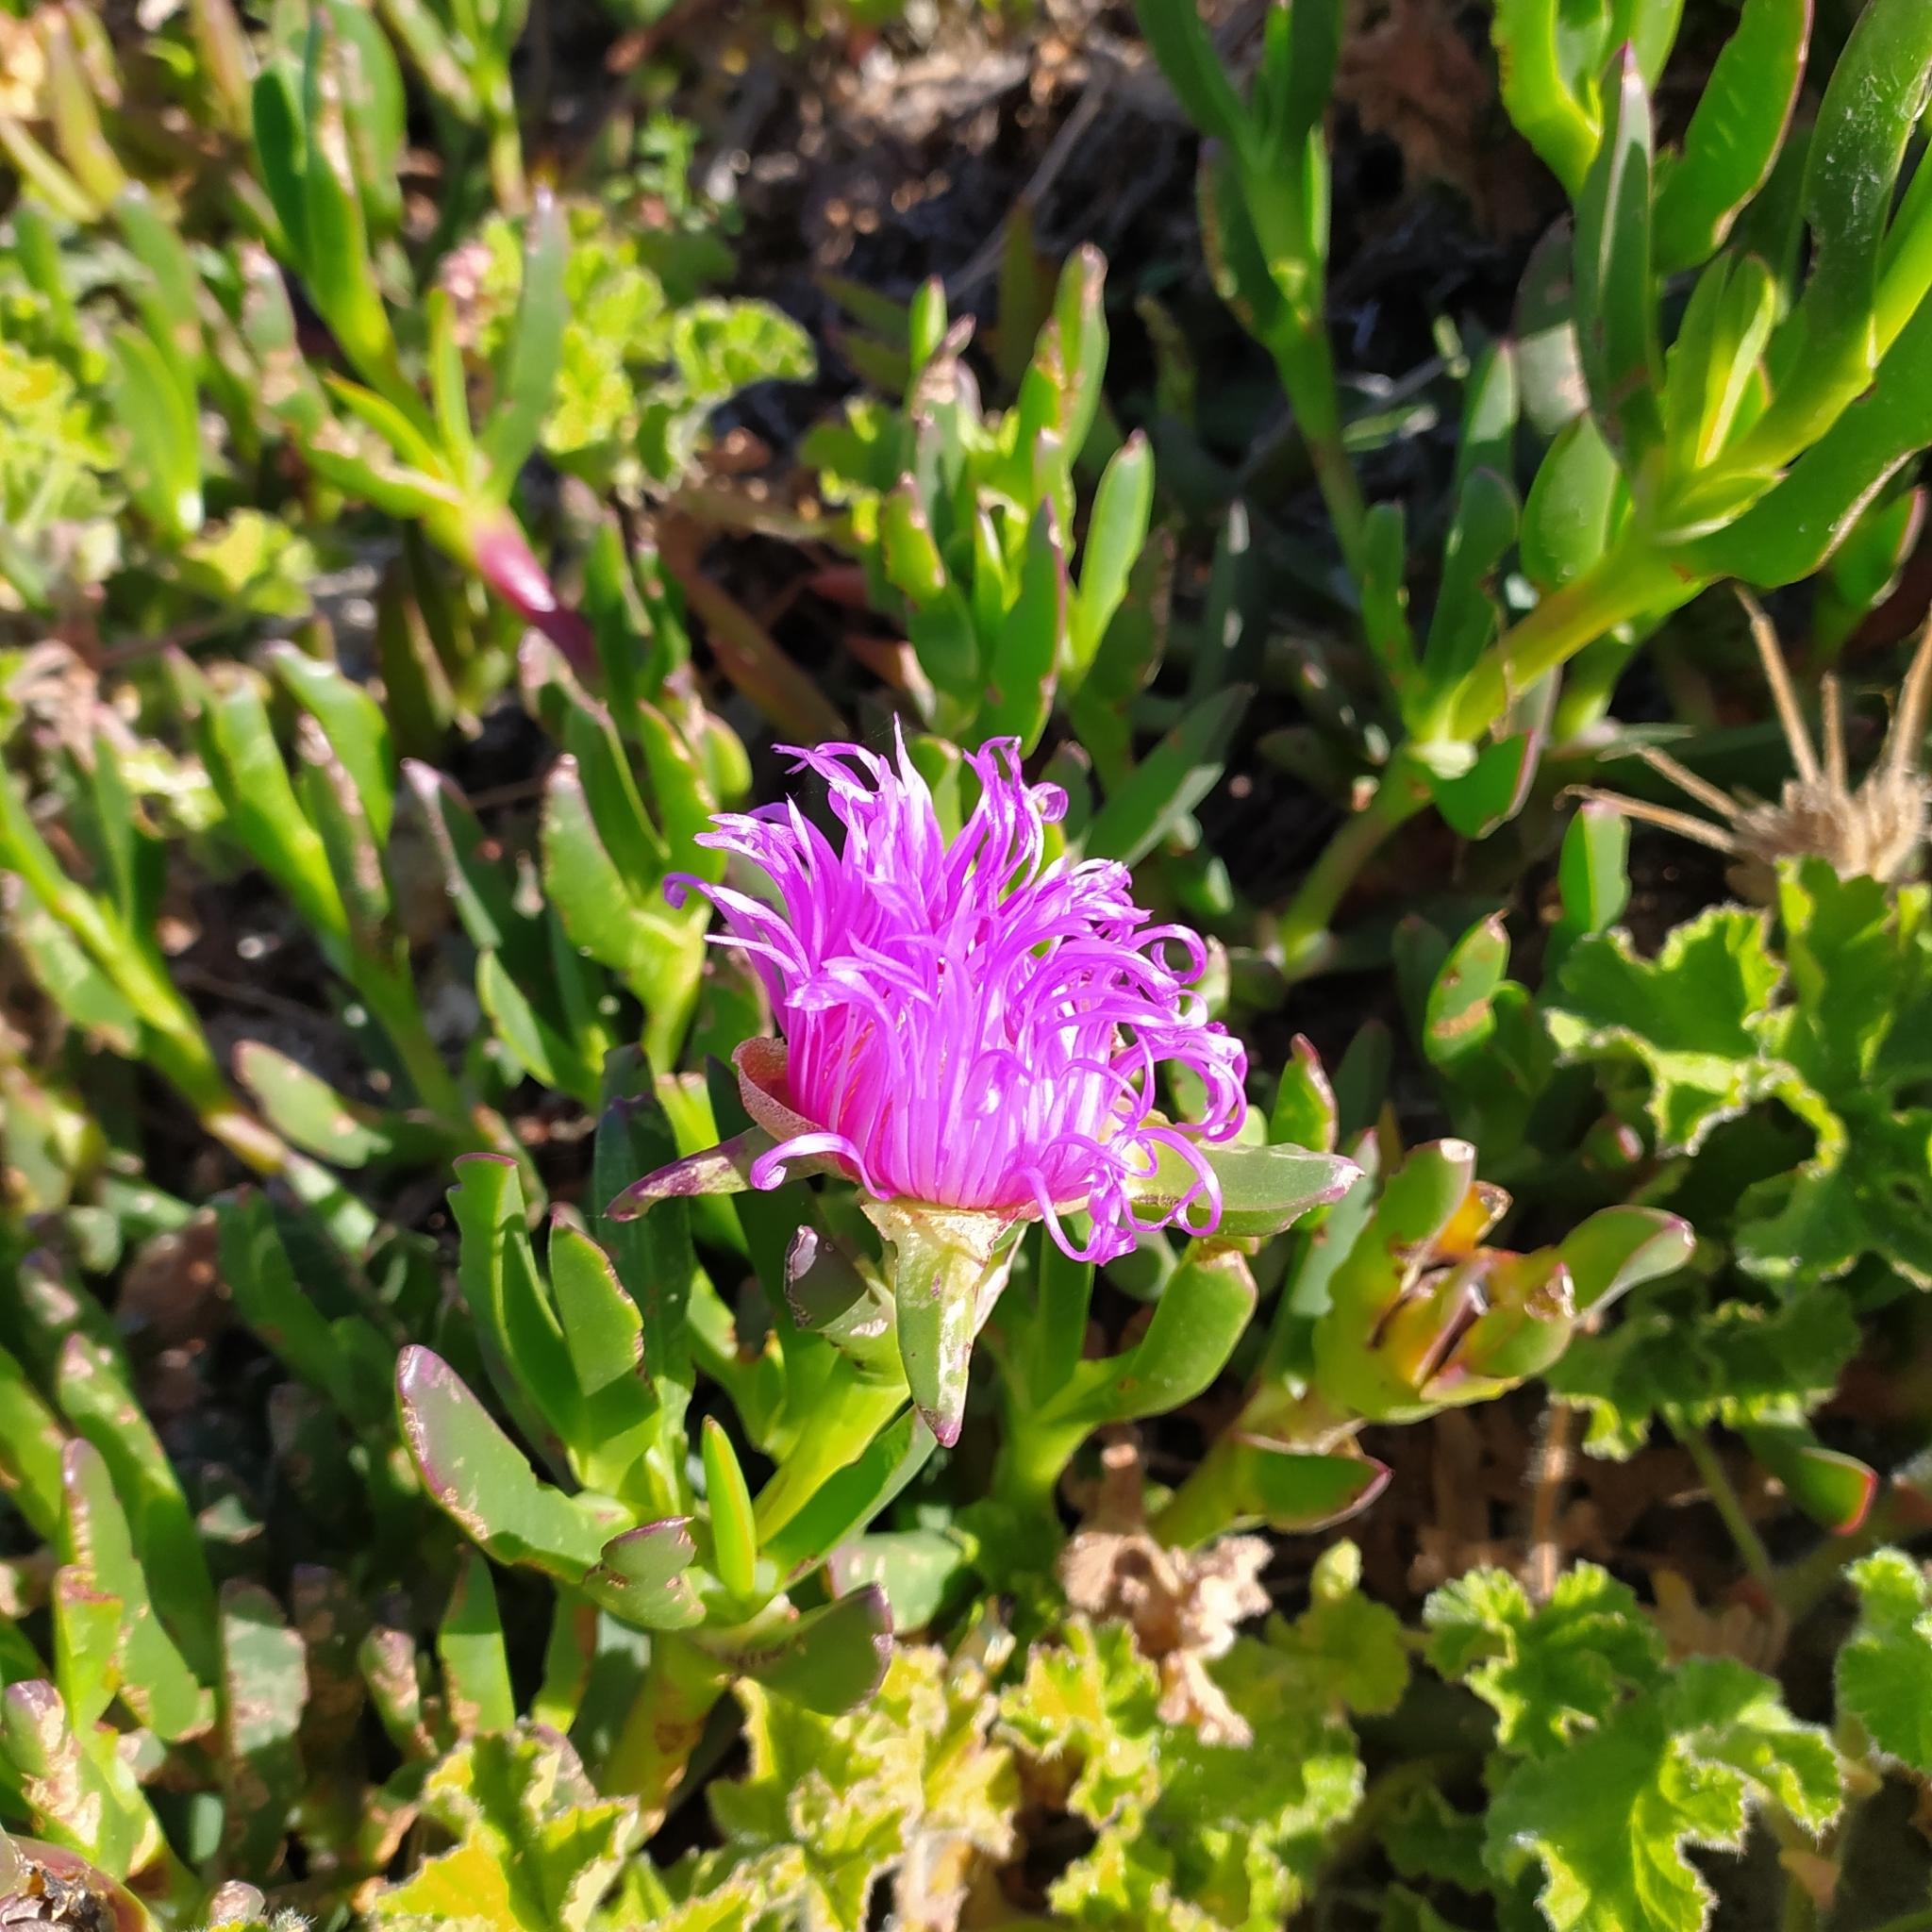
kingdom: Plantae
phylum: Tracheophyta
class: Magnoliopsida
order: Caryophyllales
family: Aizoaceae
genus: Carpobrotus
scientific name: Carpobrotus acinaciformis
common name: Sally-my-handsome
